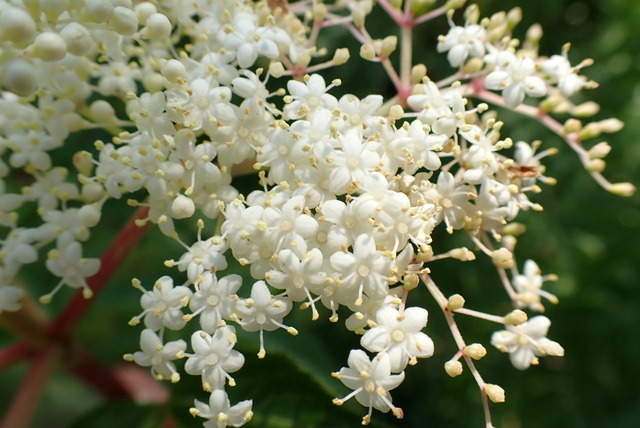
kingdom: Plantae
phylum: Tracheophyta
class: Magnoliopsida
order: Dipsacales
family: Viburnaceae
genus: Sambucus
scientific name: Sambucus canadensis
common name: American elder
